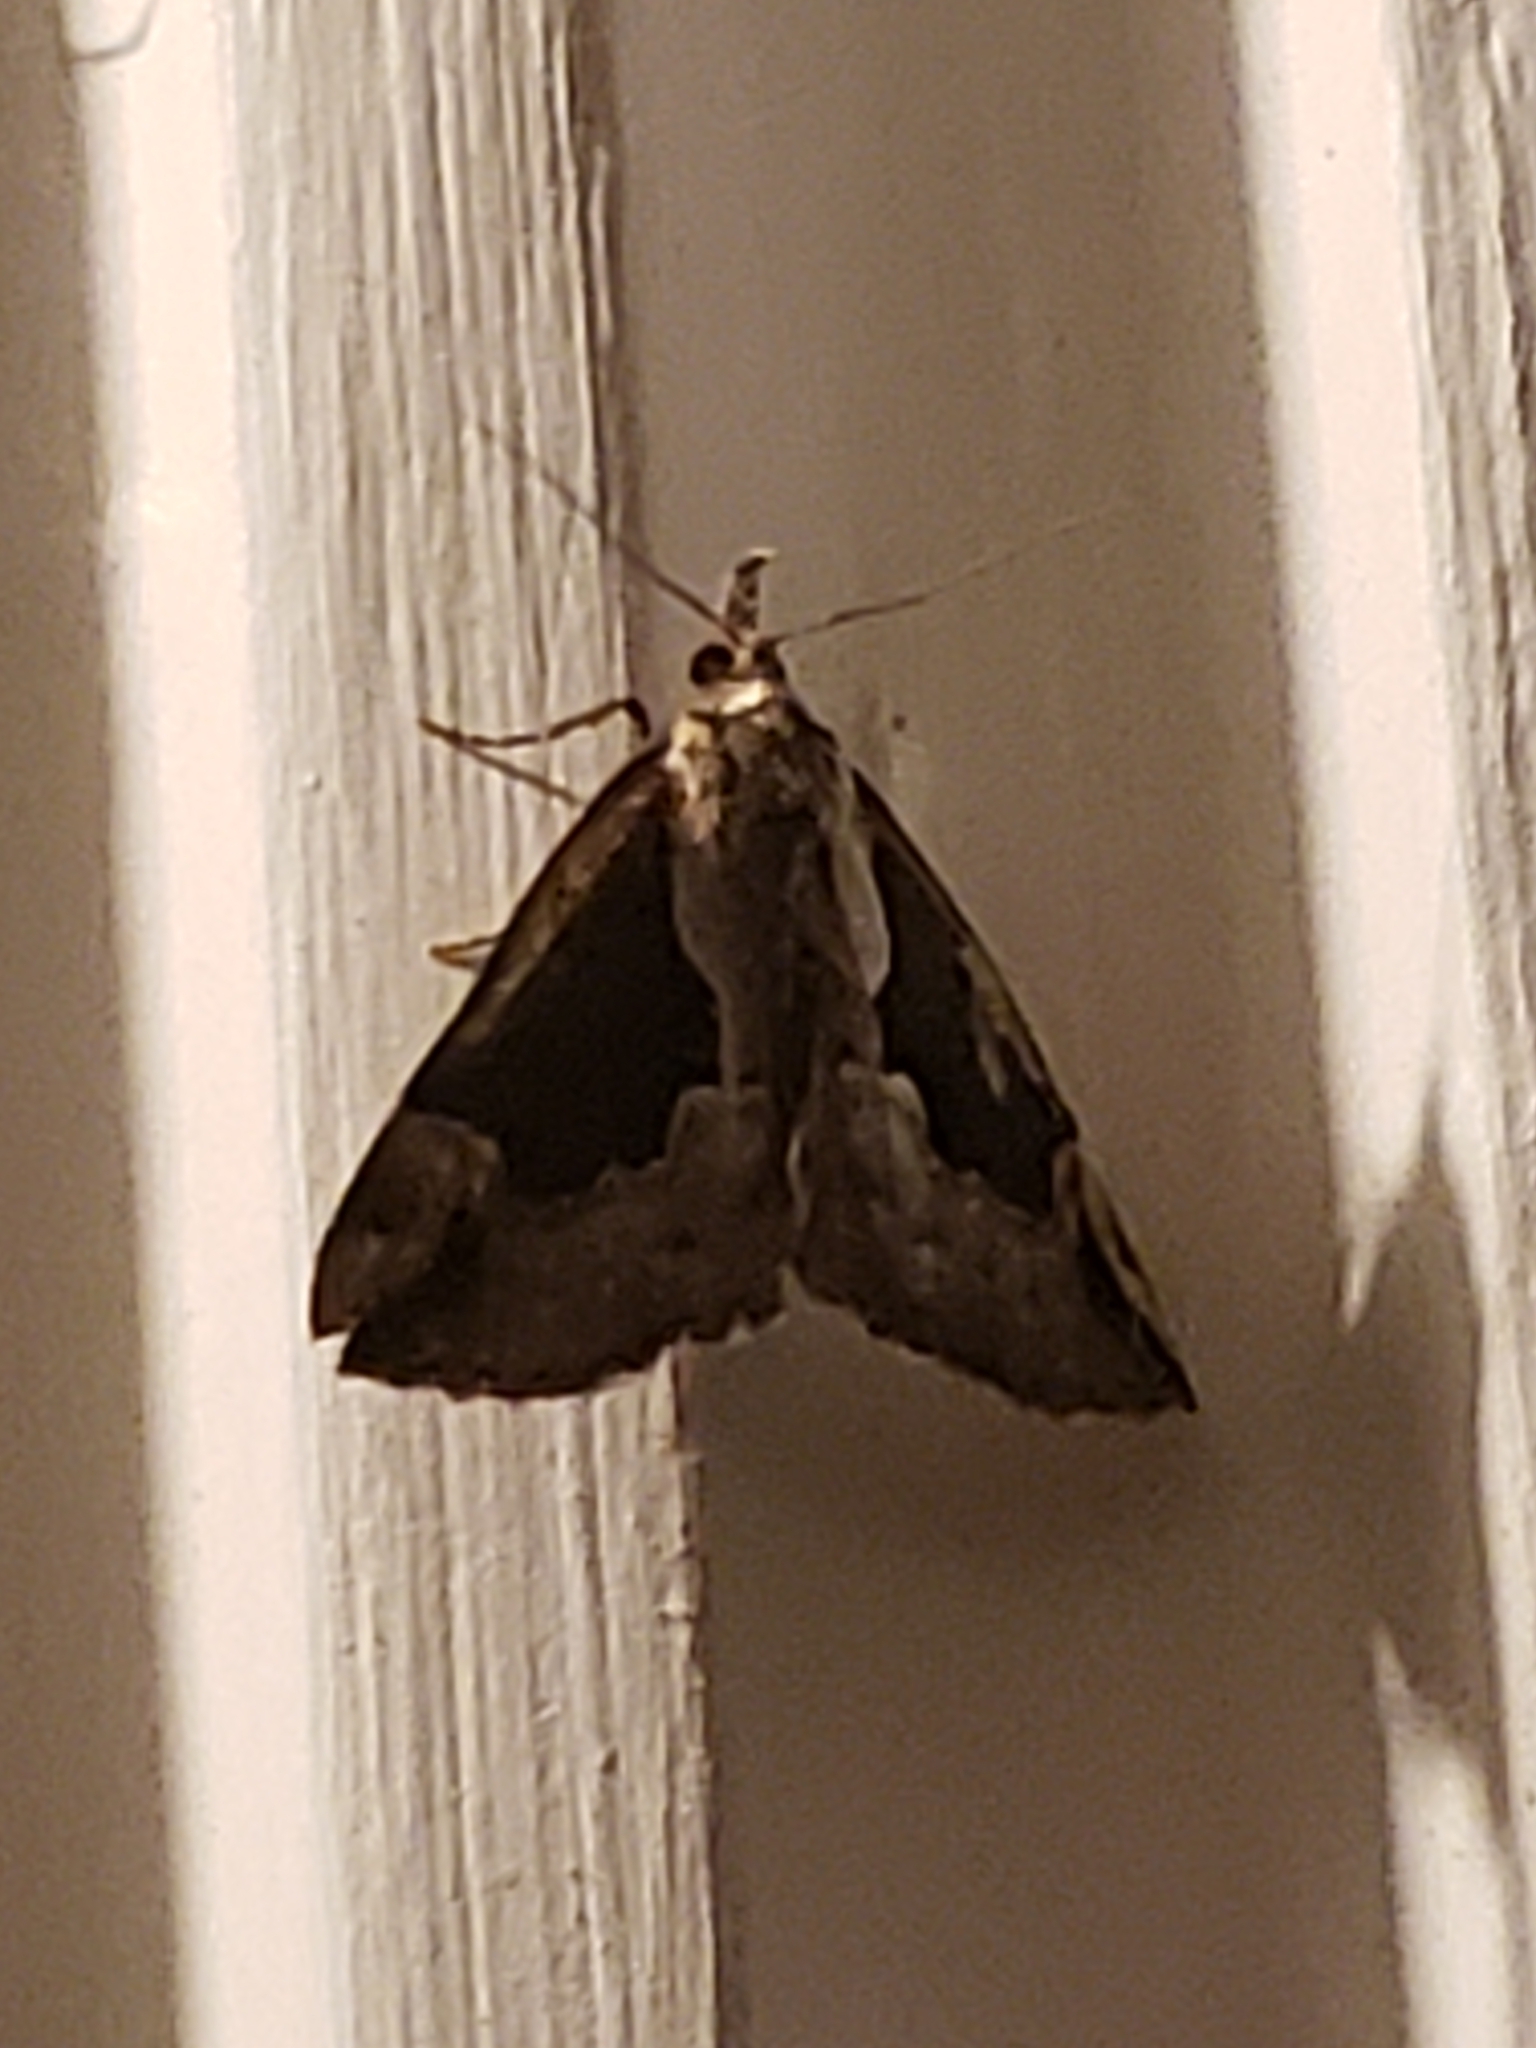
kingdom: Animalia
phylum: Arthropoda
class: Insecta
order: Lepidoptera
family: Erebidae
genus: Hypena
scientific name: Hypena baltimoralis
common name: Baltimore snout
